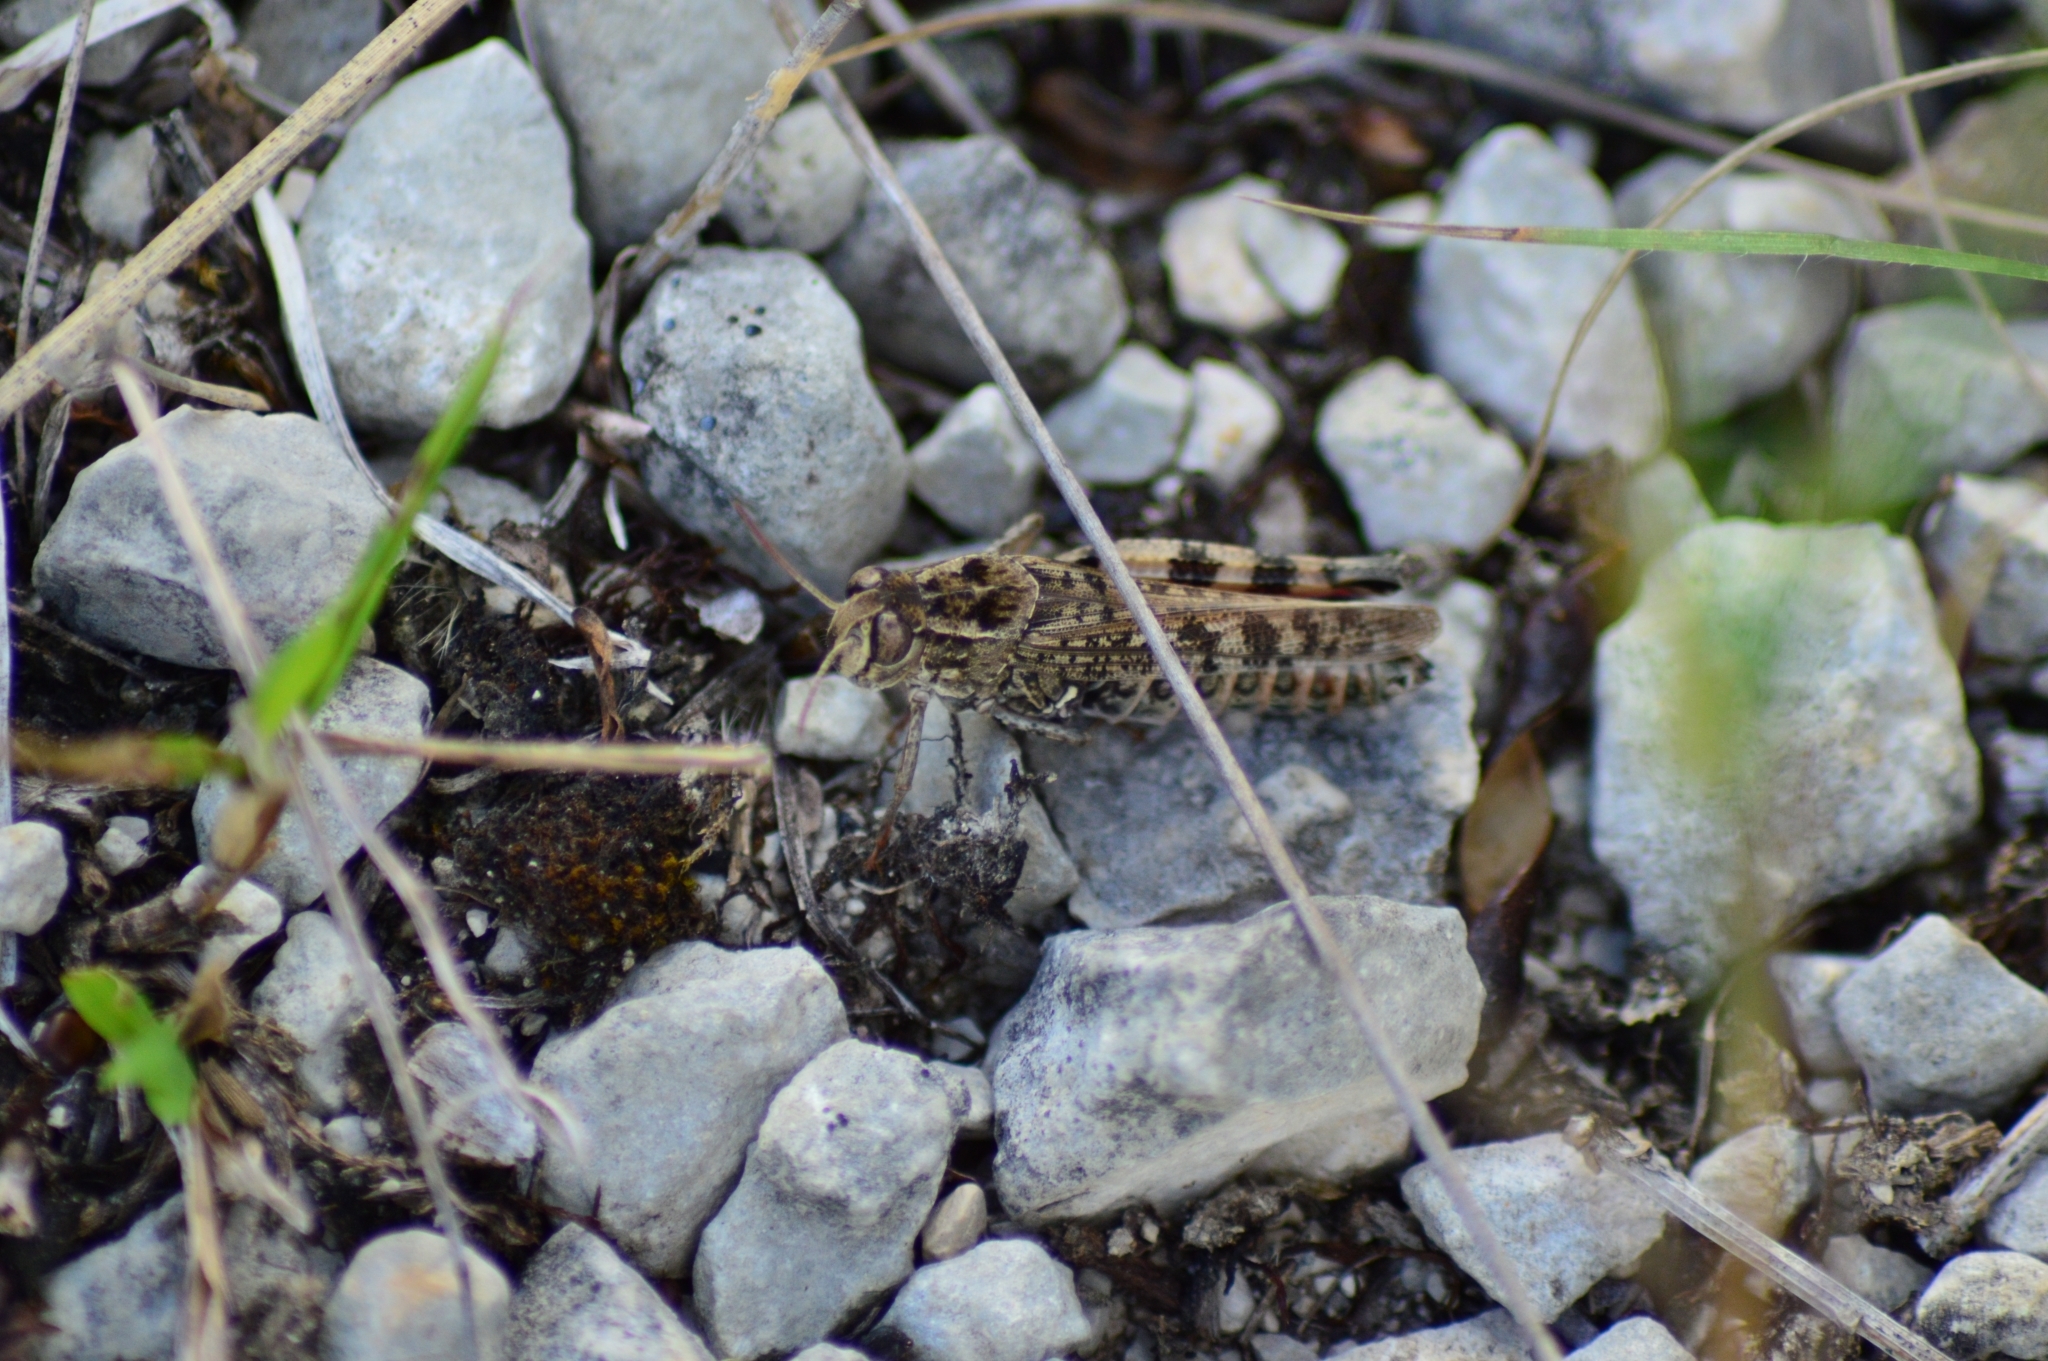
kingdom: Animalia
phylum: Arthropoda
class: Insecta
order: Orthoptera
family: Acrididae
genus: Calliptamus
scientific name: Calliptamus italicus
